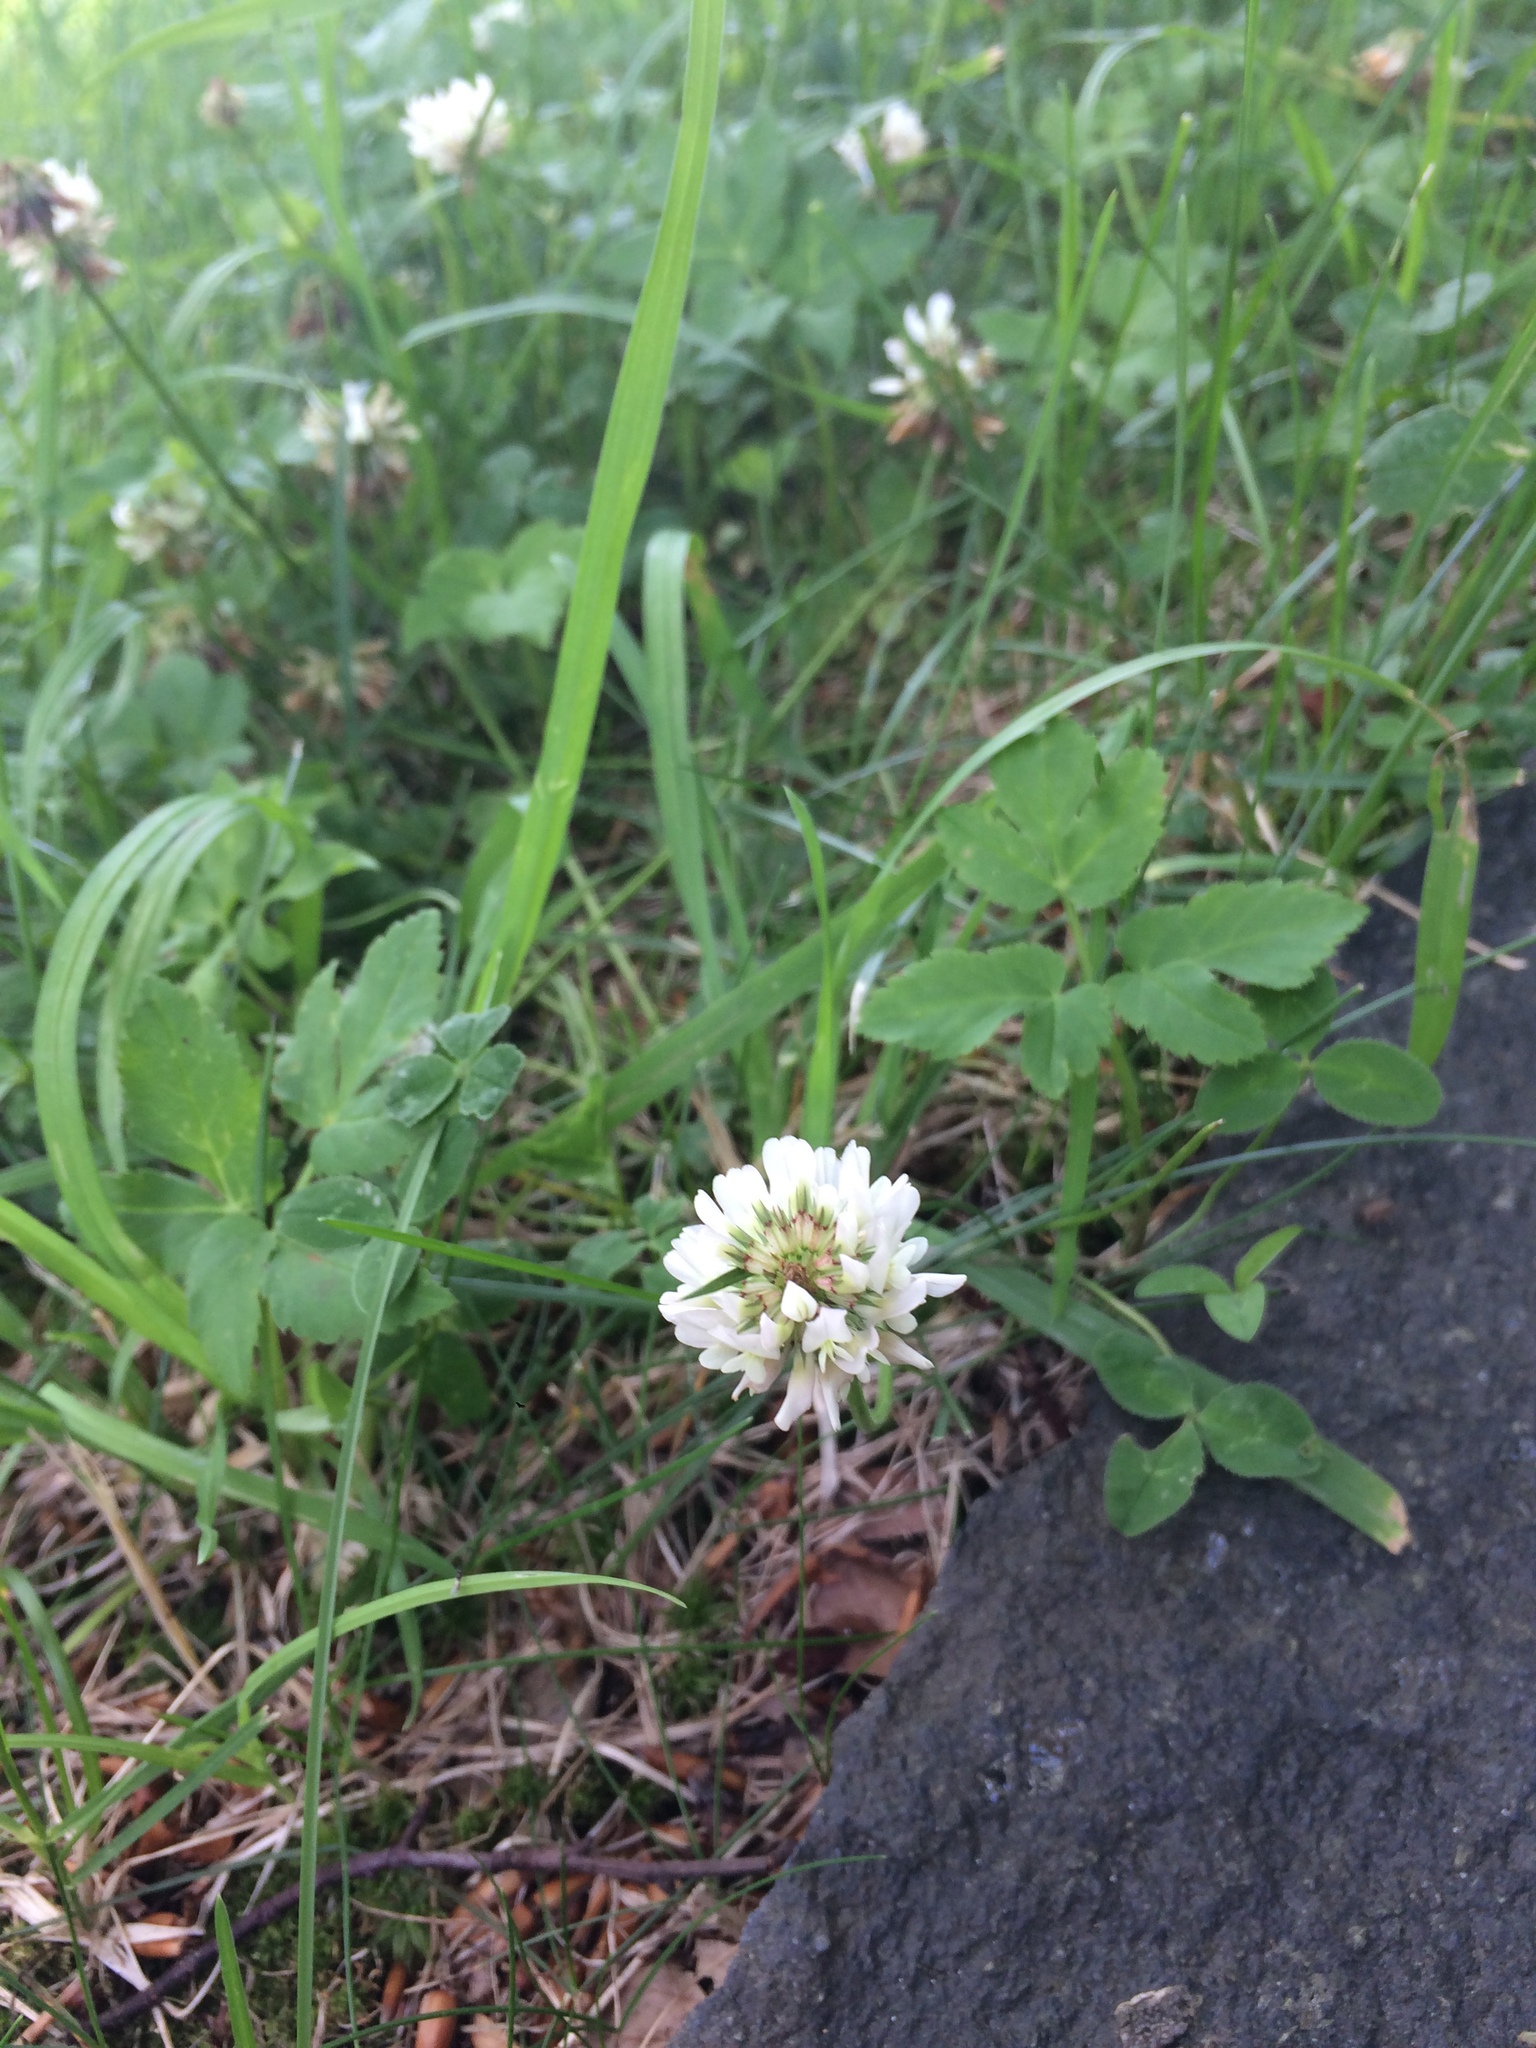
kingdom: Plantae
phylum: Tracheophyta
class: Magnoliopsida
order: Fabales
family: Fabaceae
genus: Trifolium
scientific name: Trifolium repens
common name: White clover
